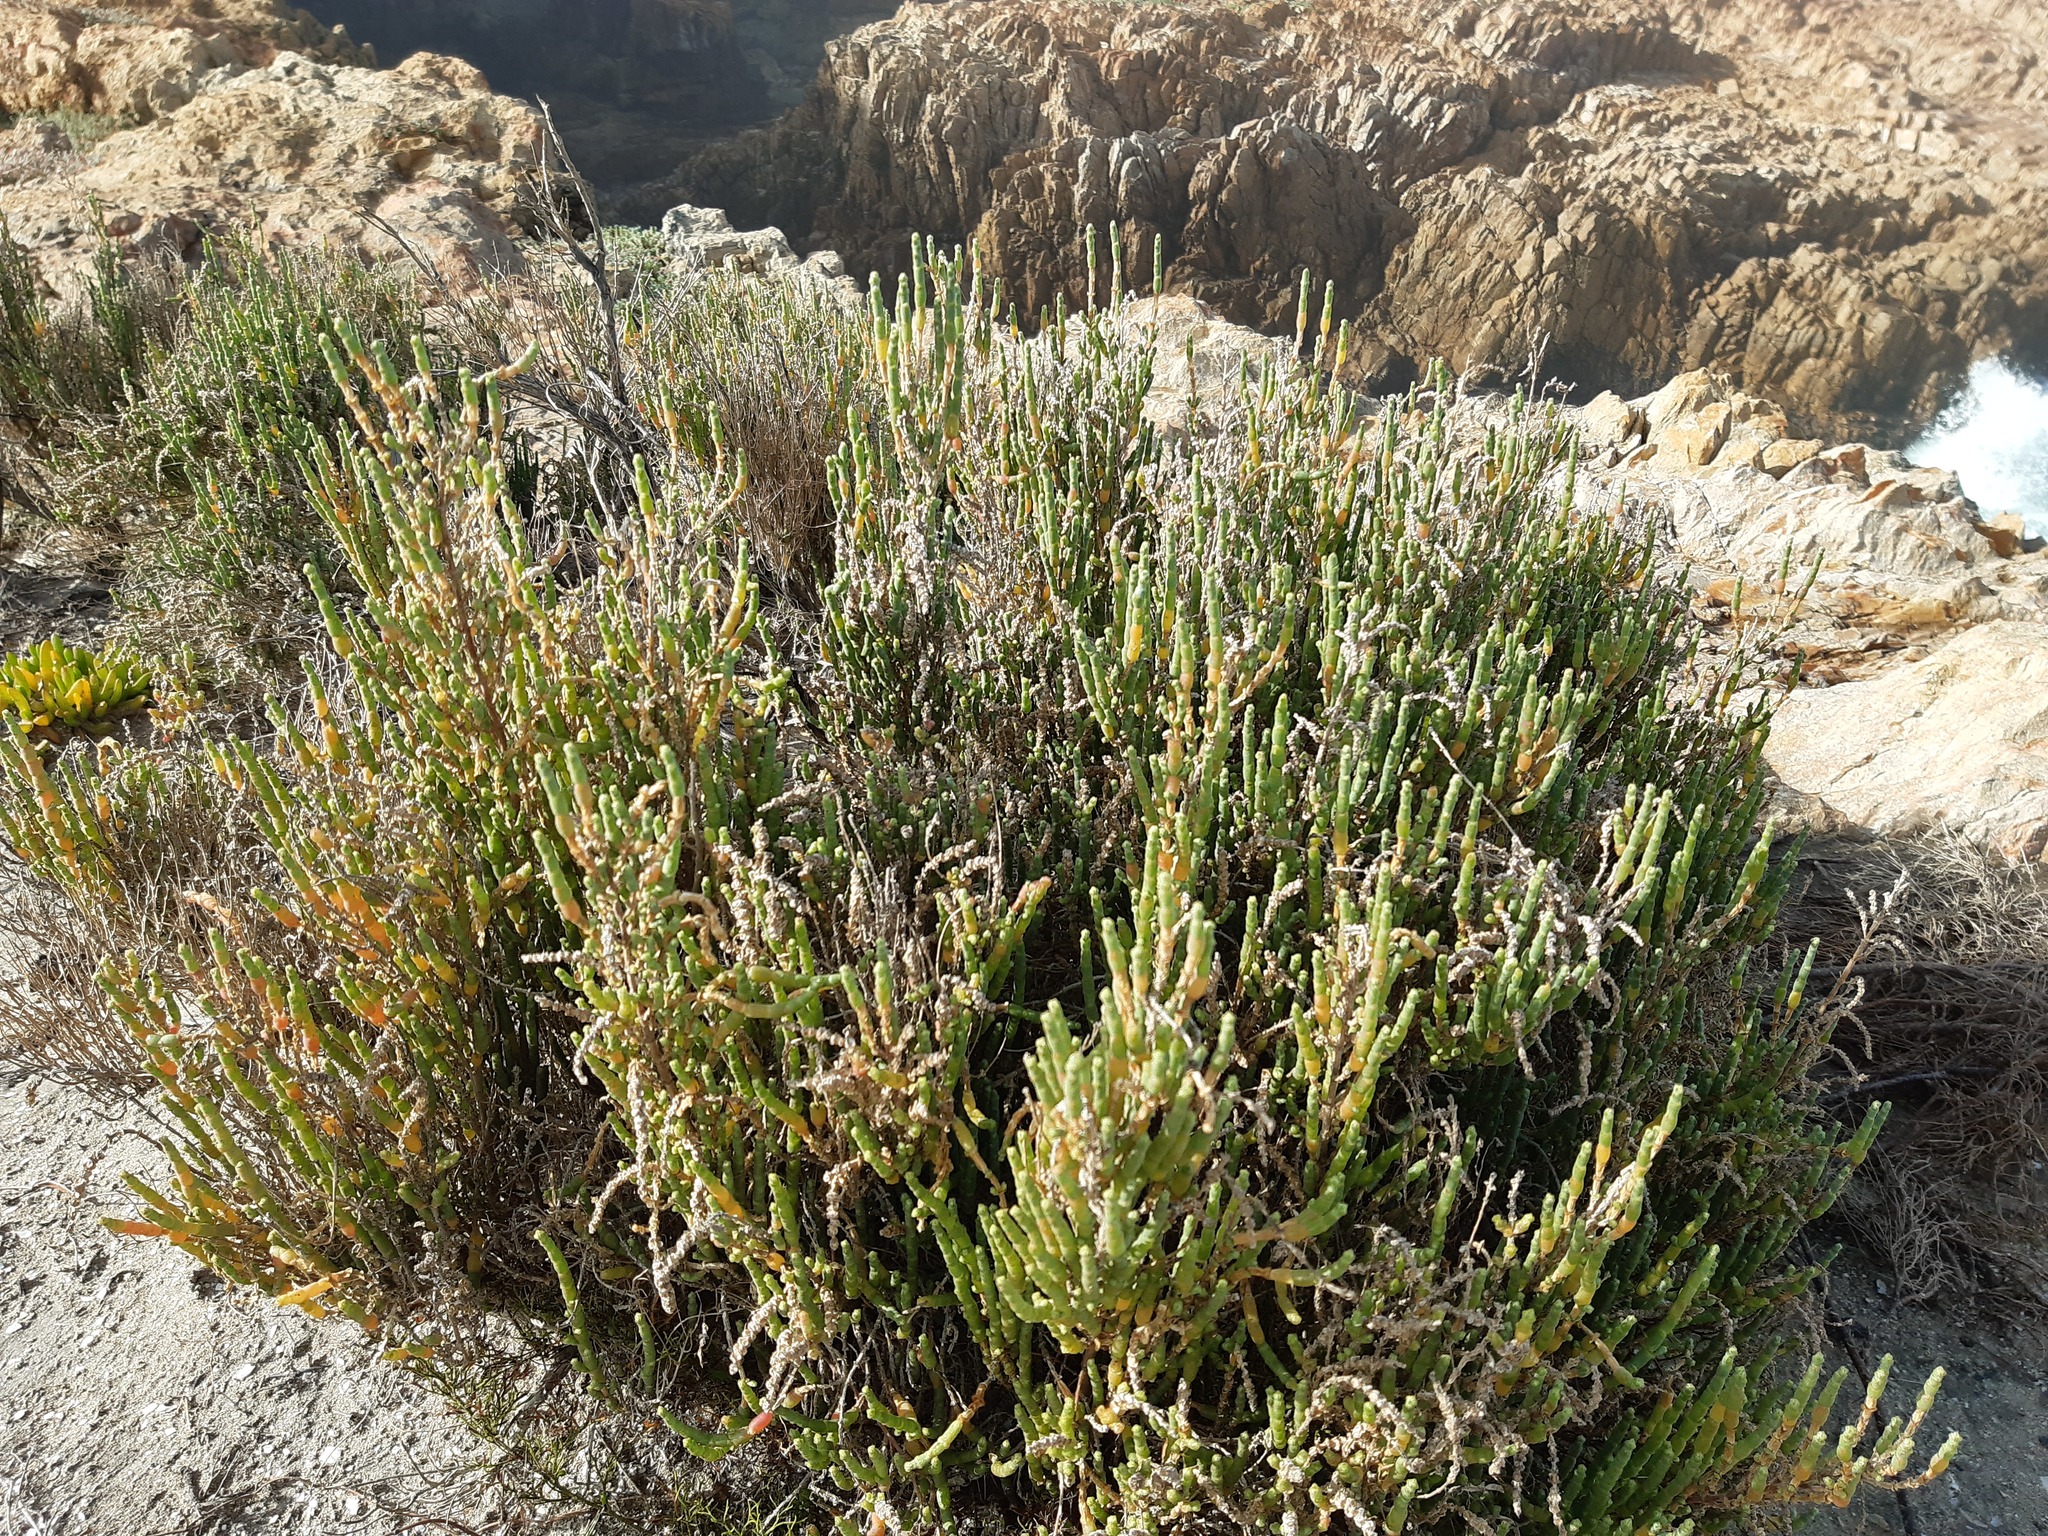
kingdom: Plantae
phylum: Tracheophyta
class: Magnoliopsida
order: Caryophyllales
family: Amaranthaceae
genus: Salicornia
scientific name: Salicornia littorea
